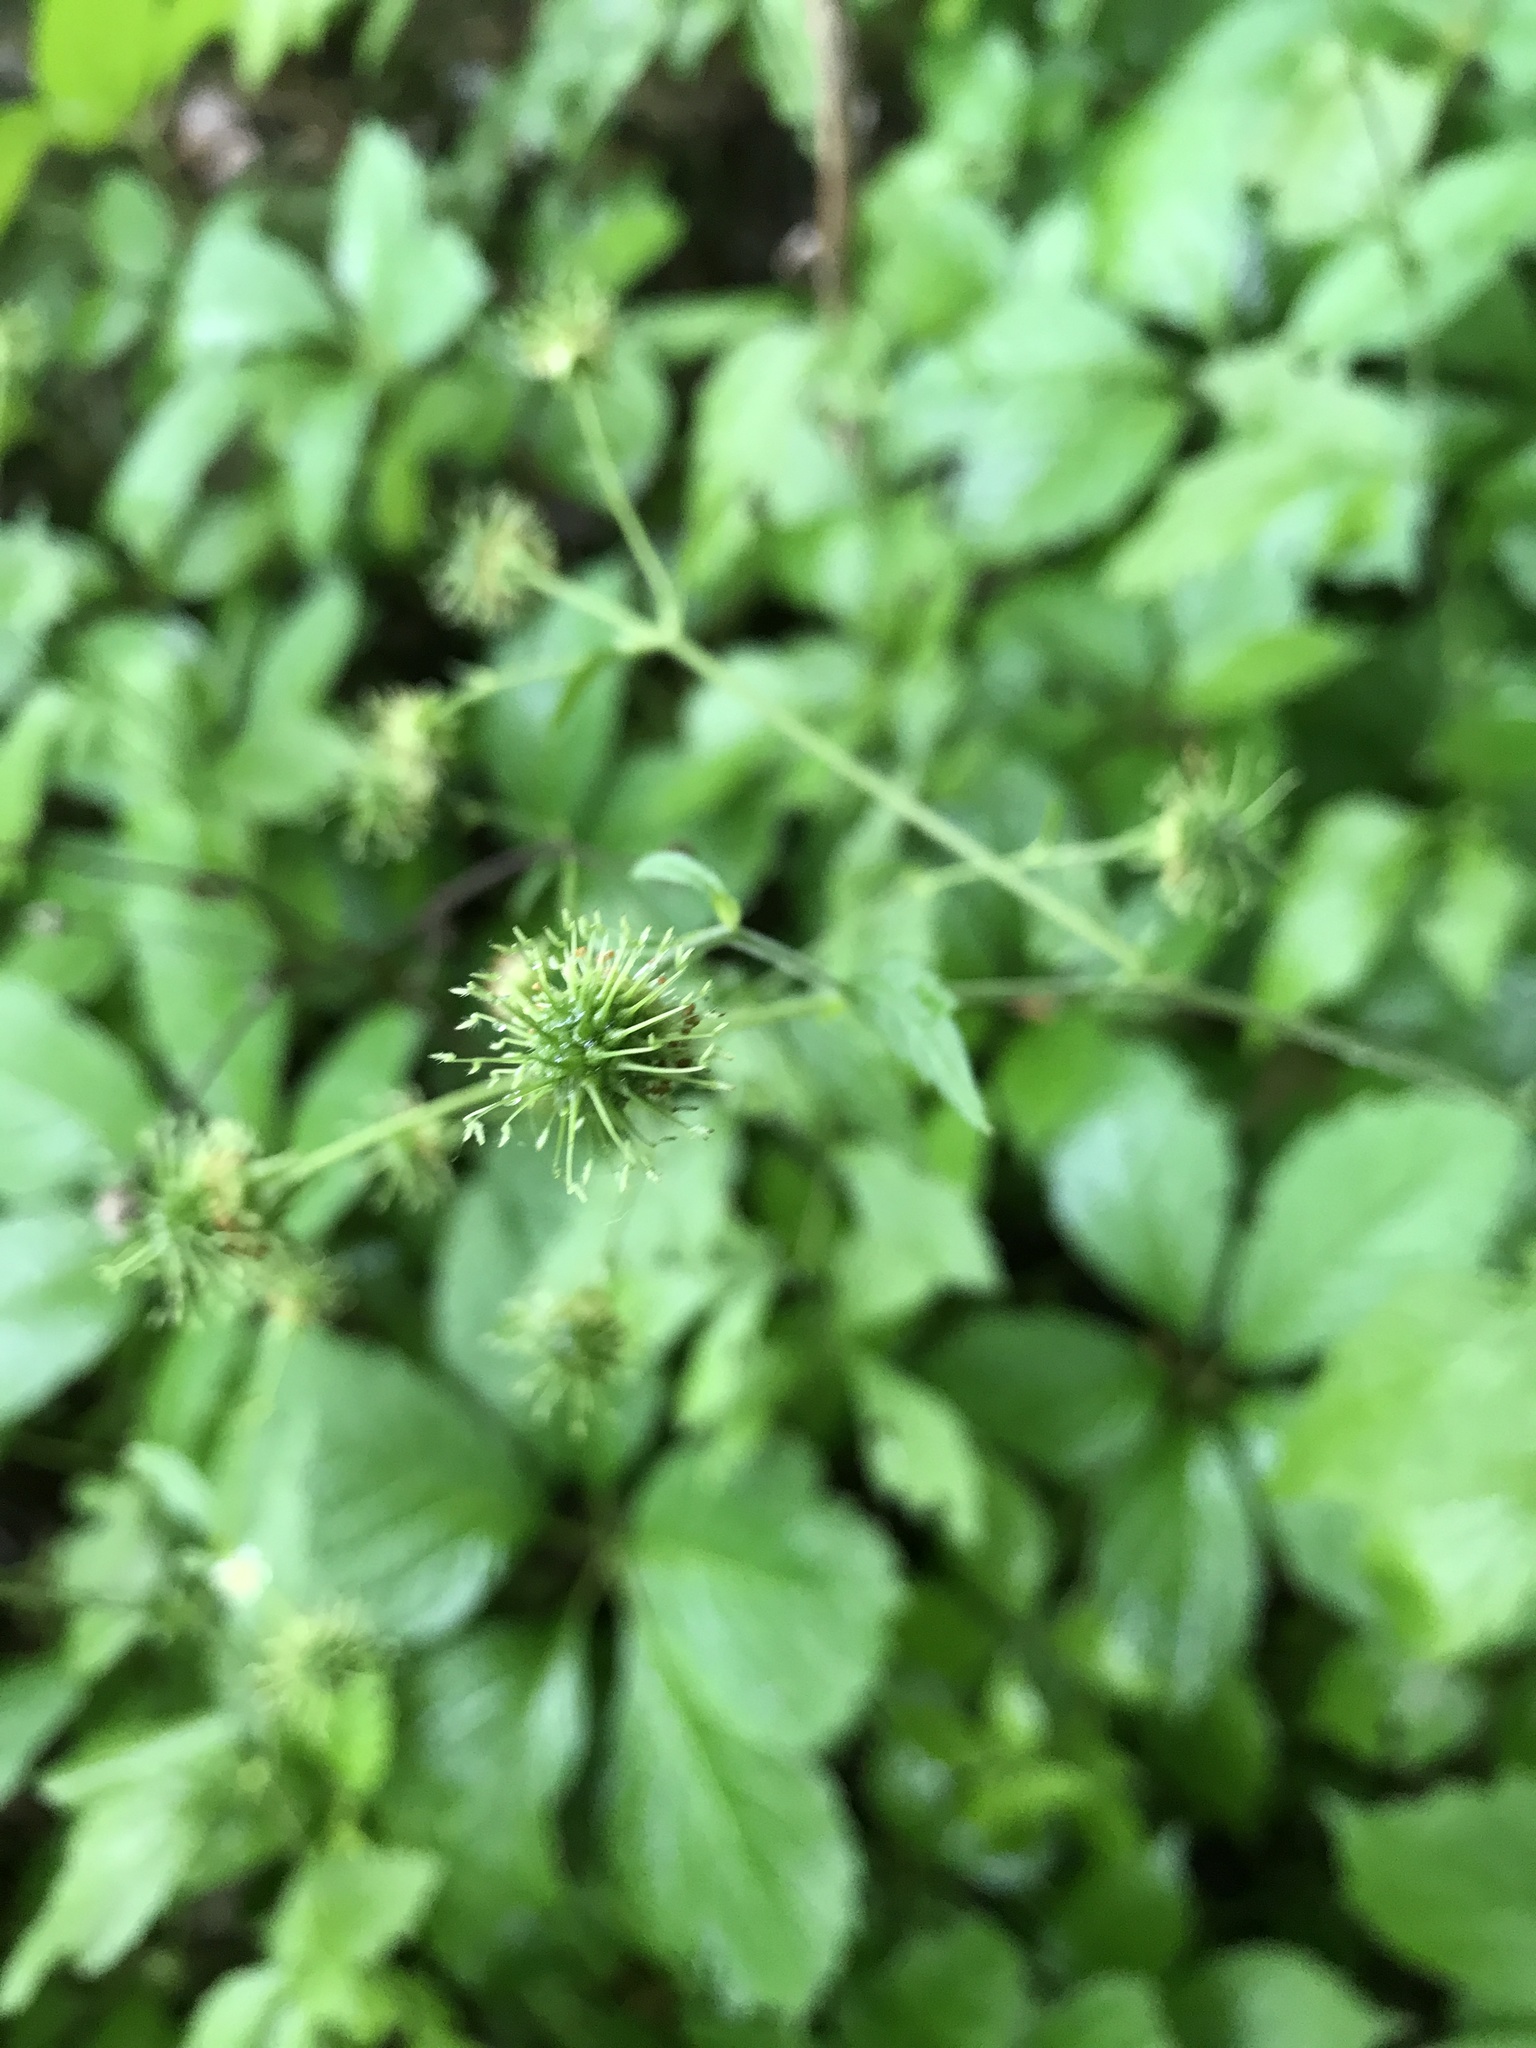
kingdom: Plantae
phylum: Tracheophyta
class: Magnoliopsida
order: Rosales
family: Rosaceae
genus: Geum
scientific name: Geum canadense
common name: White avens
